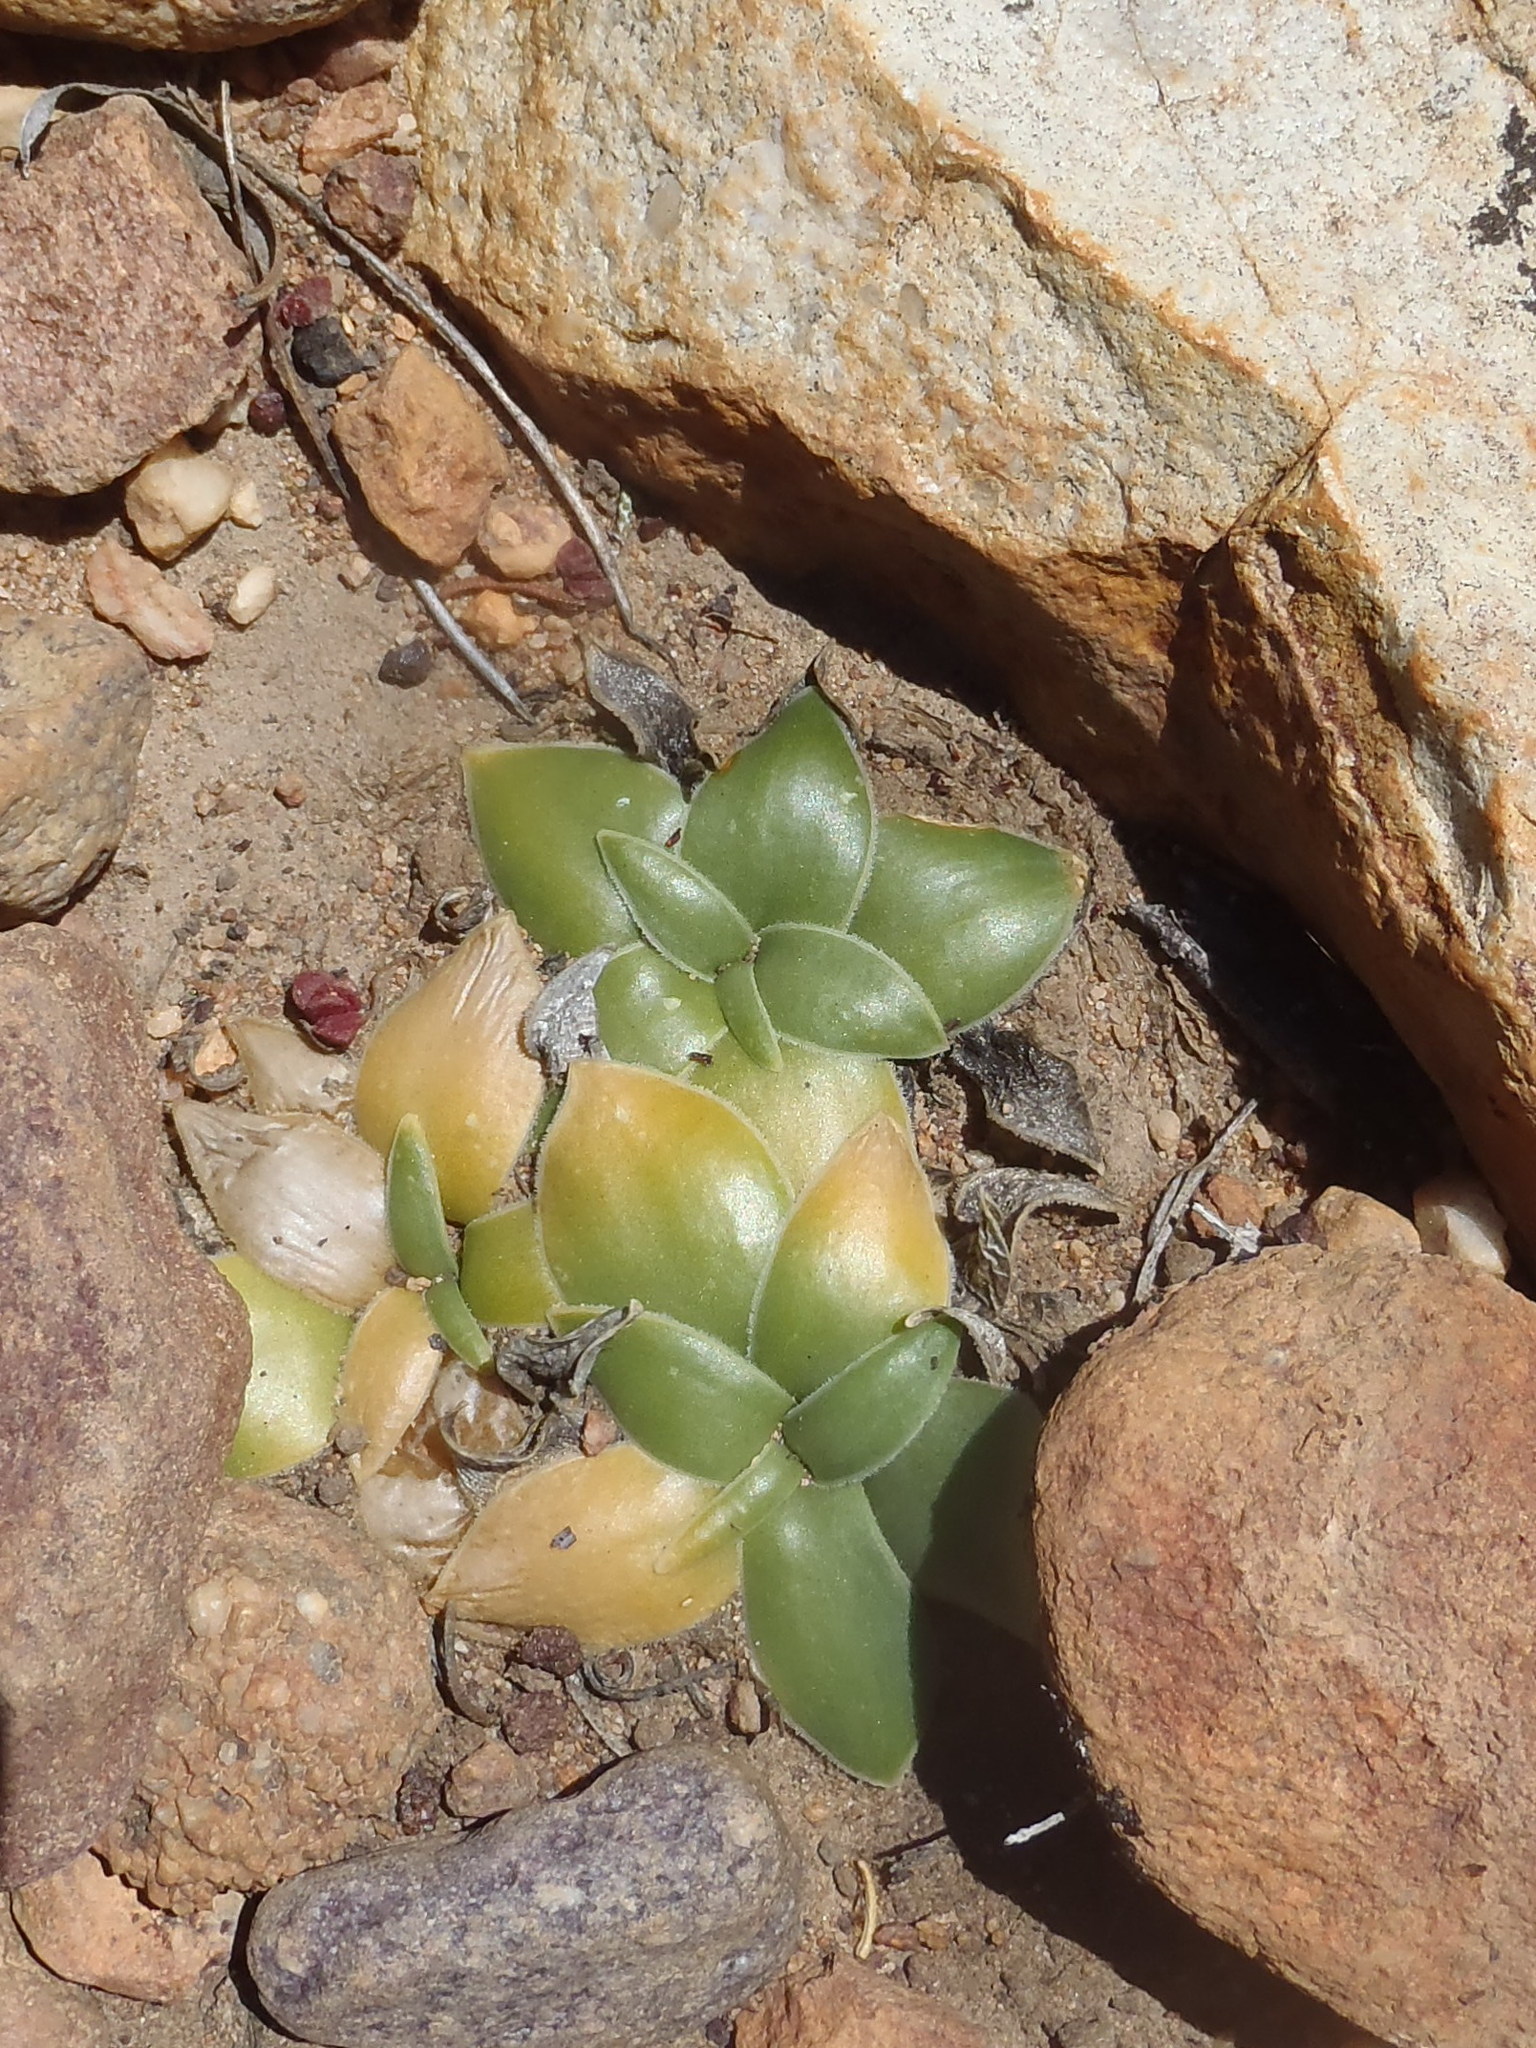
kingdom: Plantae
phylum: Tracheophyta
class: Liliopsida
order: Asparagales
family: Asparagaceae
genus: Drimia
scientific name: Drimia ciliata
